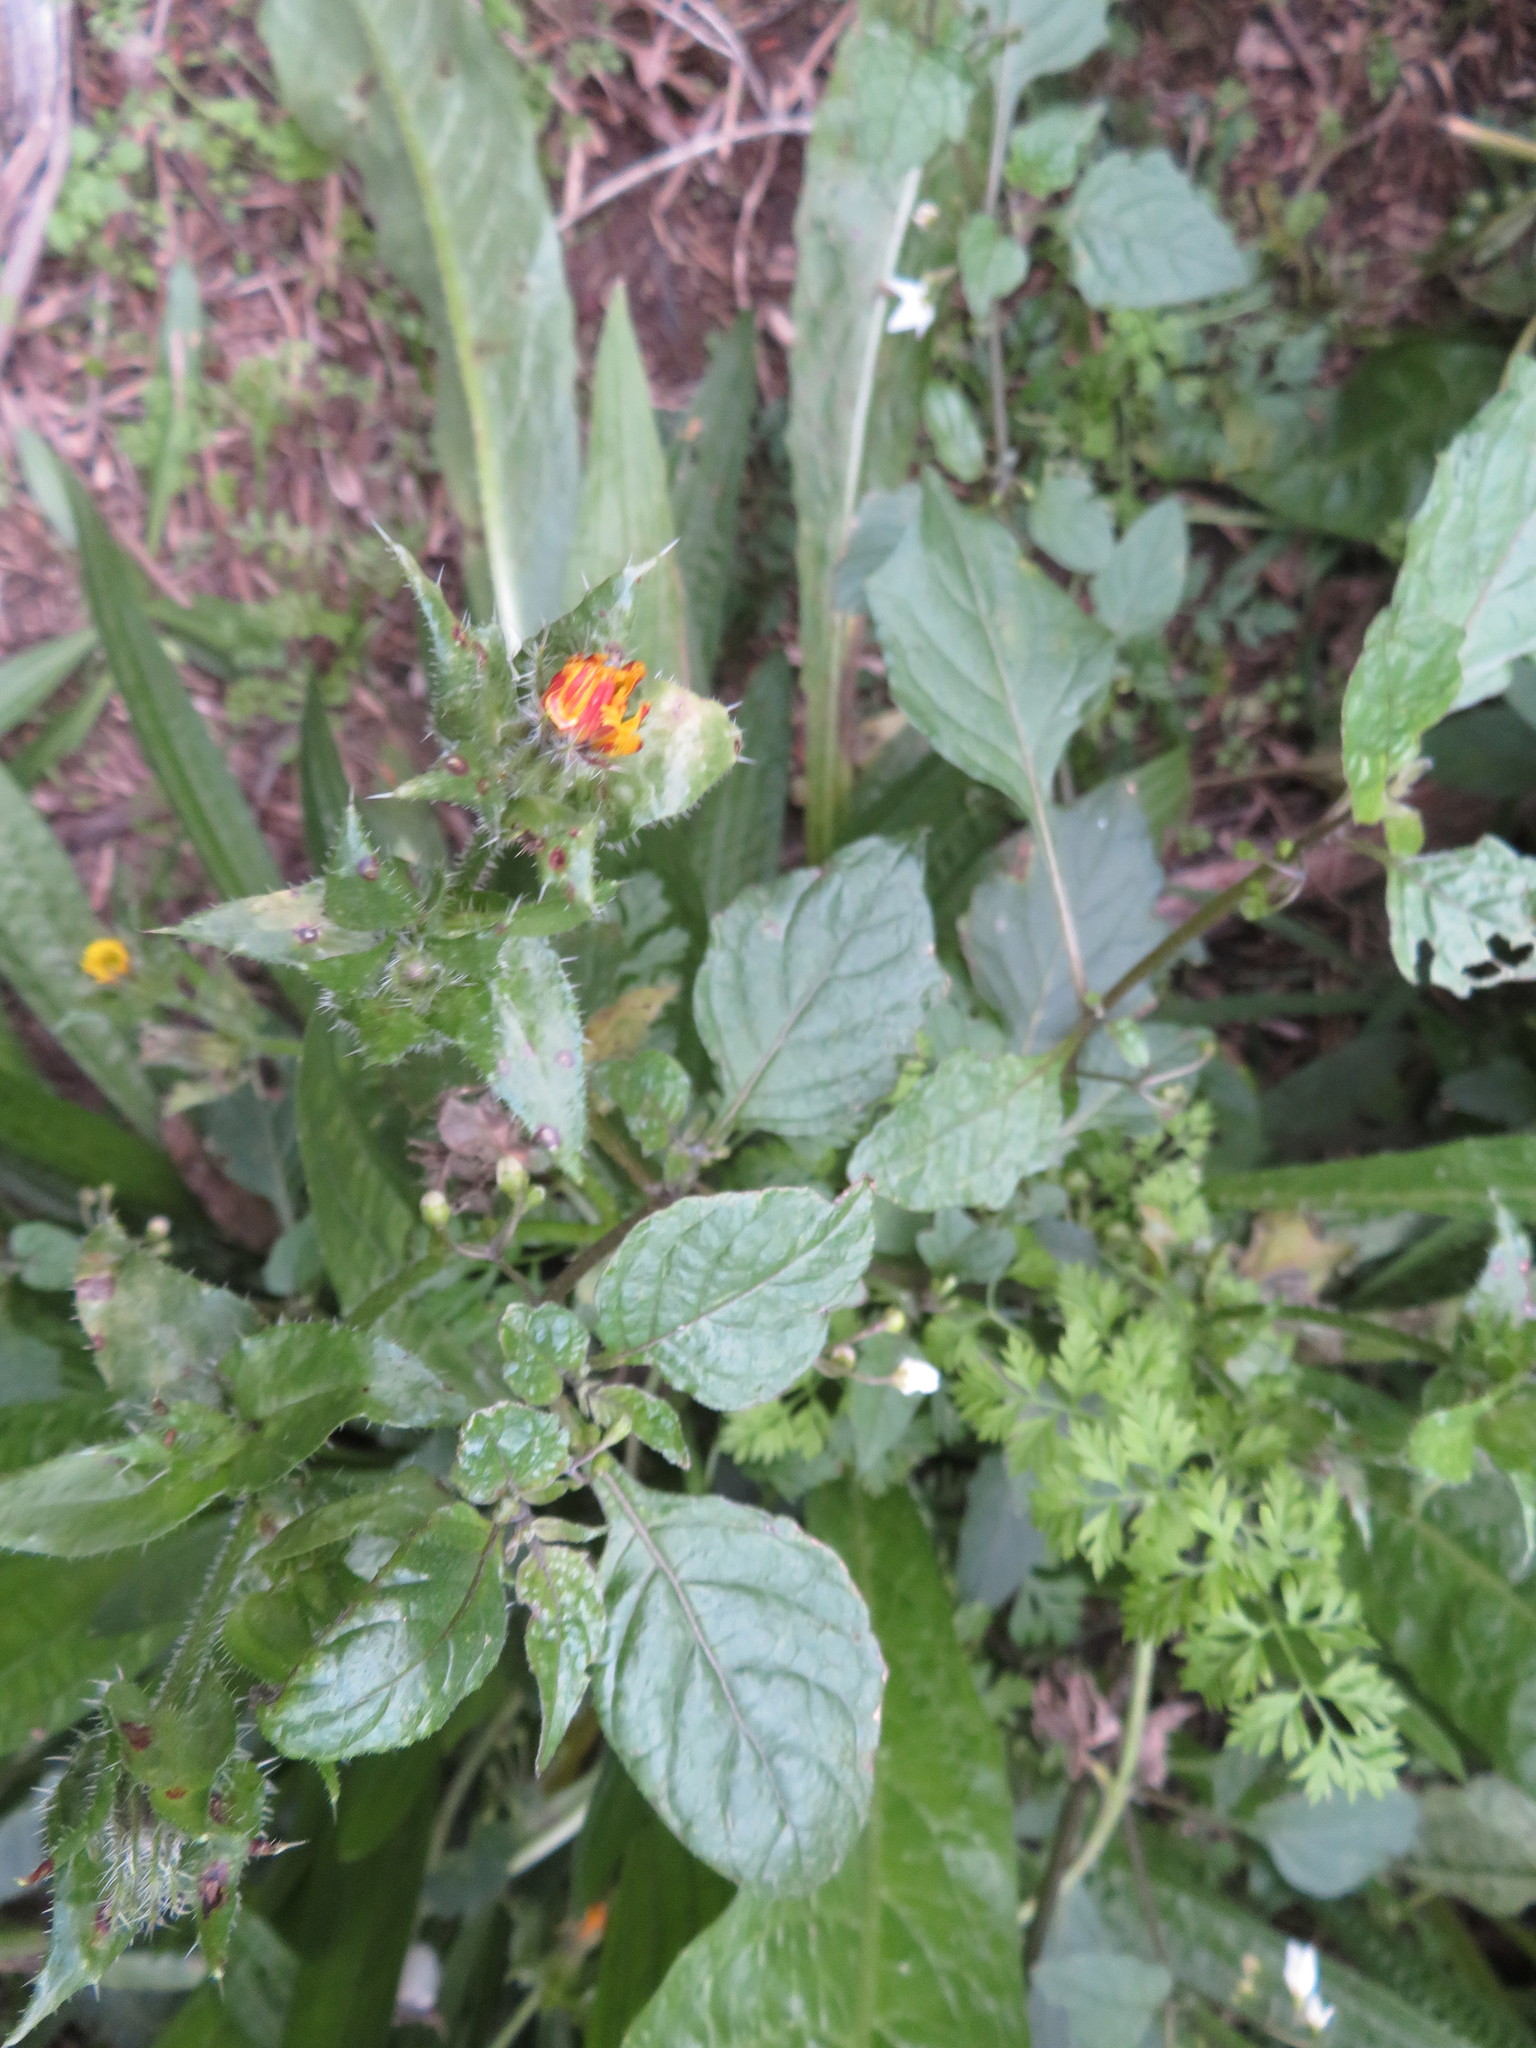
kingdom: Plantae
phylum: Tracheophyta
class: Magnoliopsida
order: Asterales
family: Asteraceae
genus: Helminthotheca
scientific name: Helminthotheca echioides
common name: Ox-tongue
